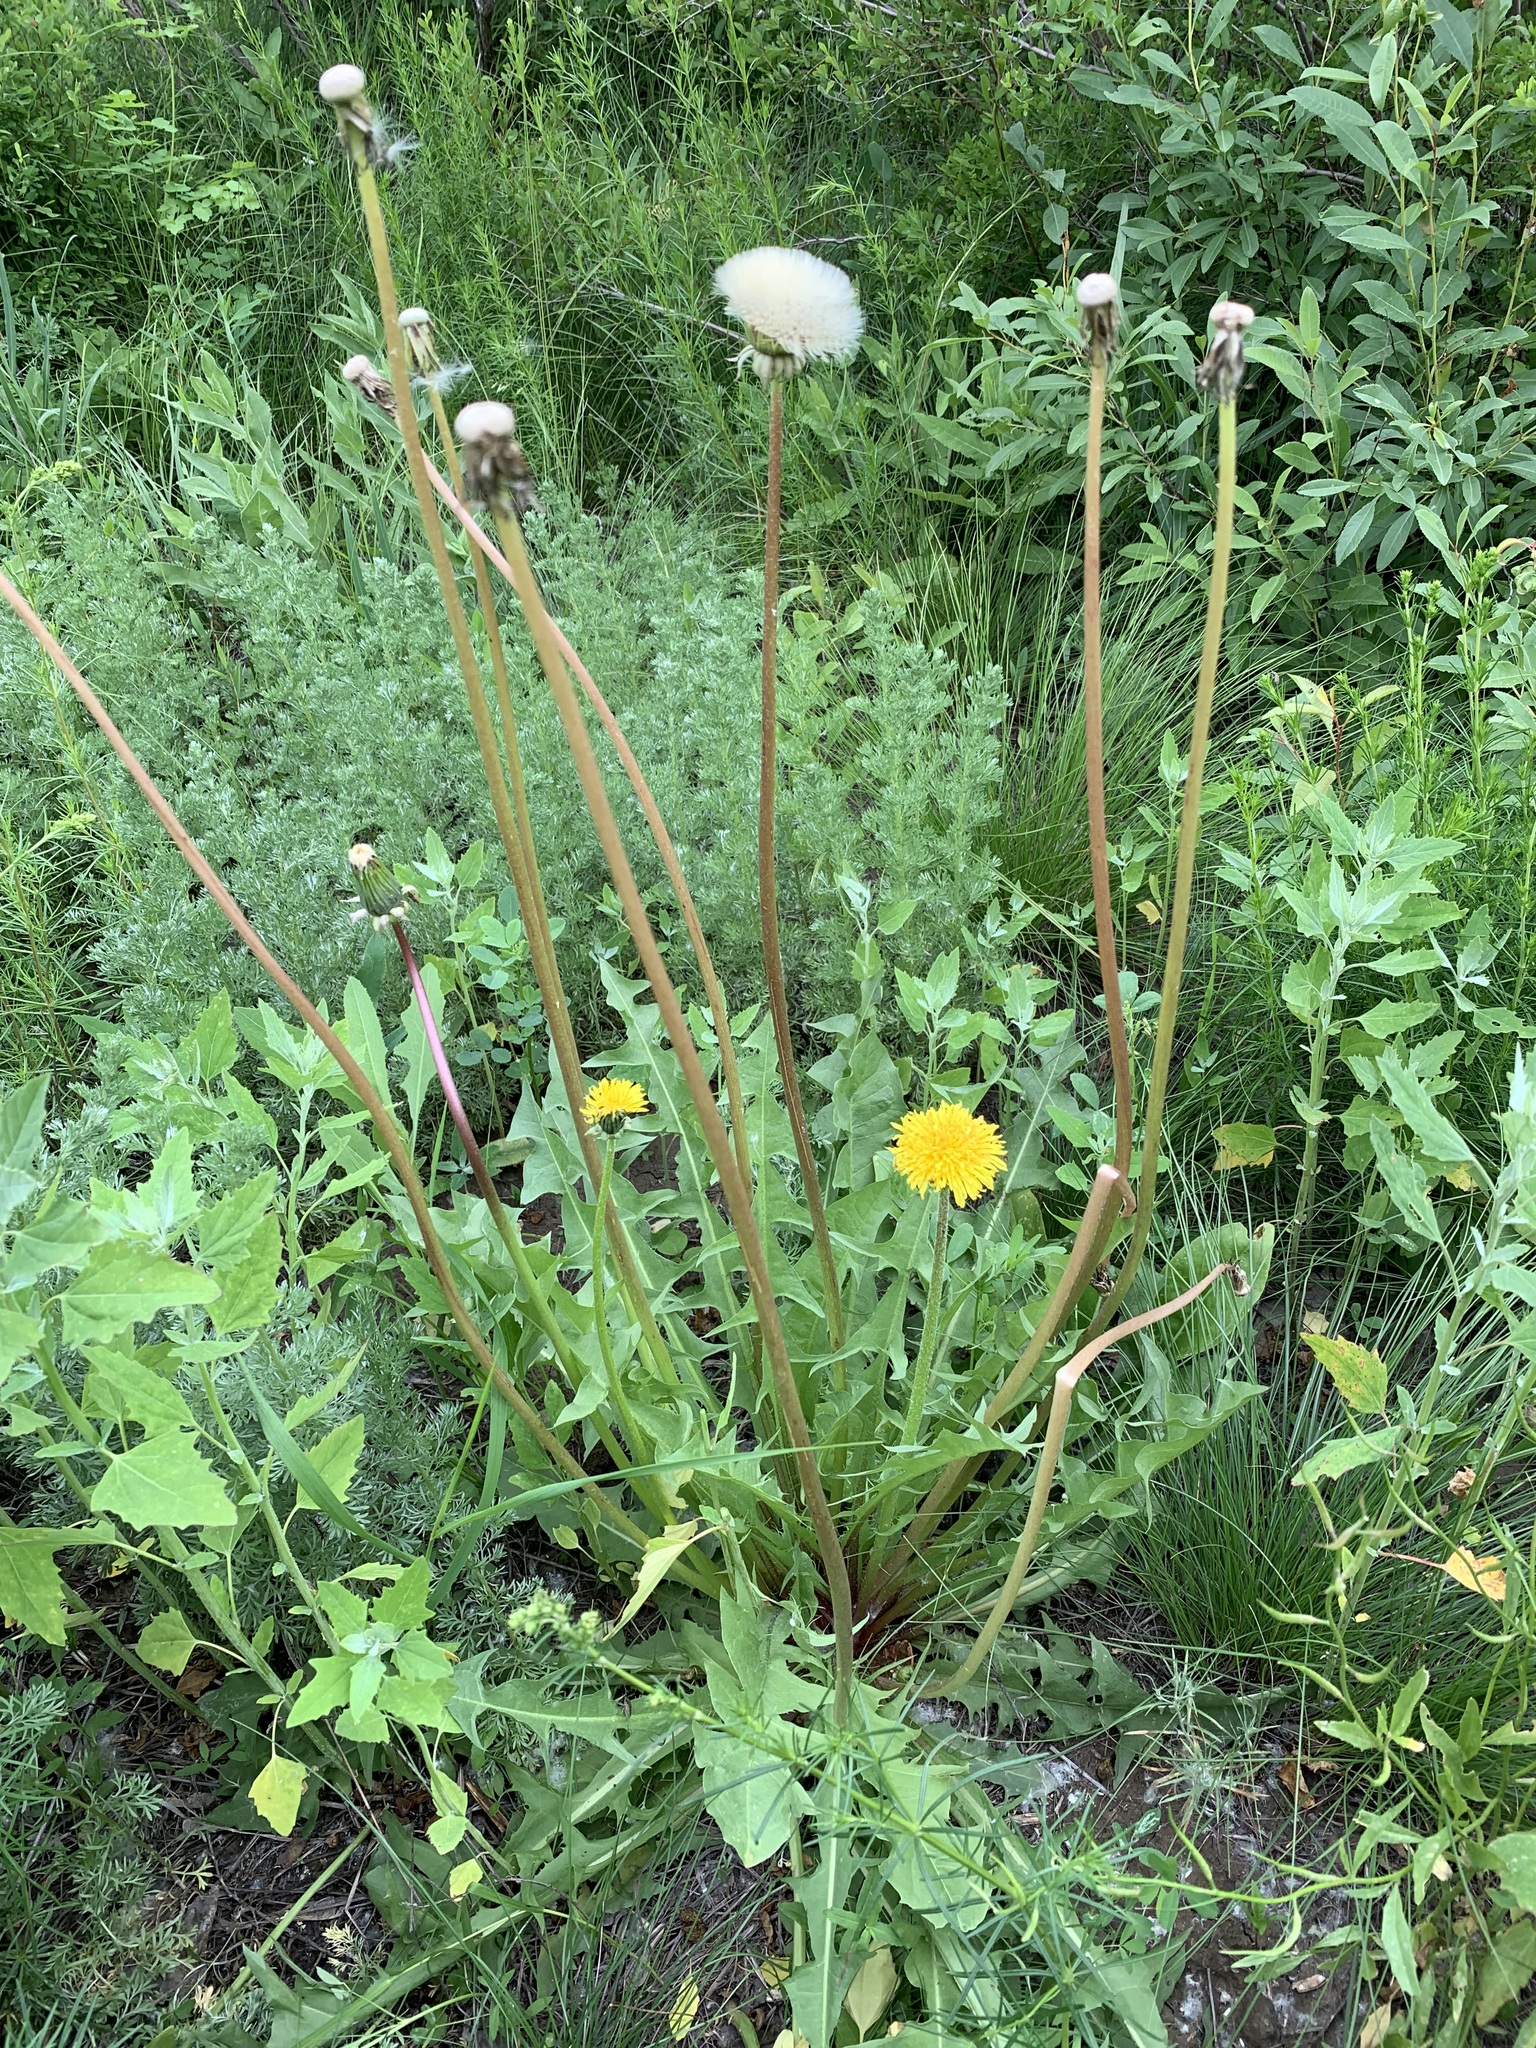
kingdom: Plantae
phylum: Tracheophyta
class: Magnoliopsida
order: Asterales
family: Asteraceae
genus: Taraxacum
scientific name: Taraxacum officinale
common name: Common dandelion
